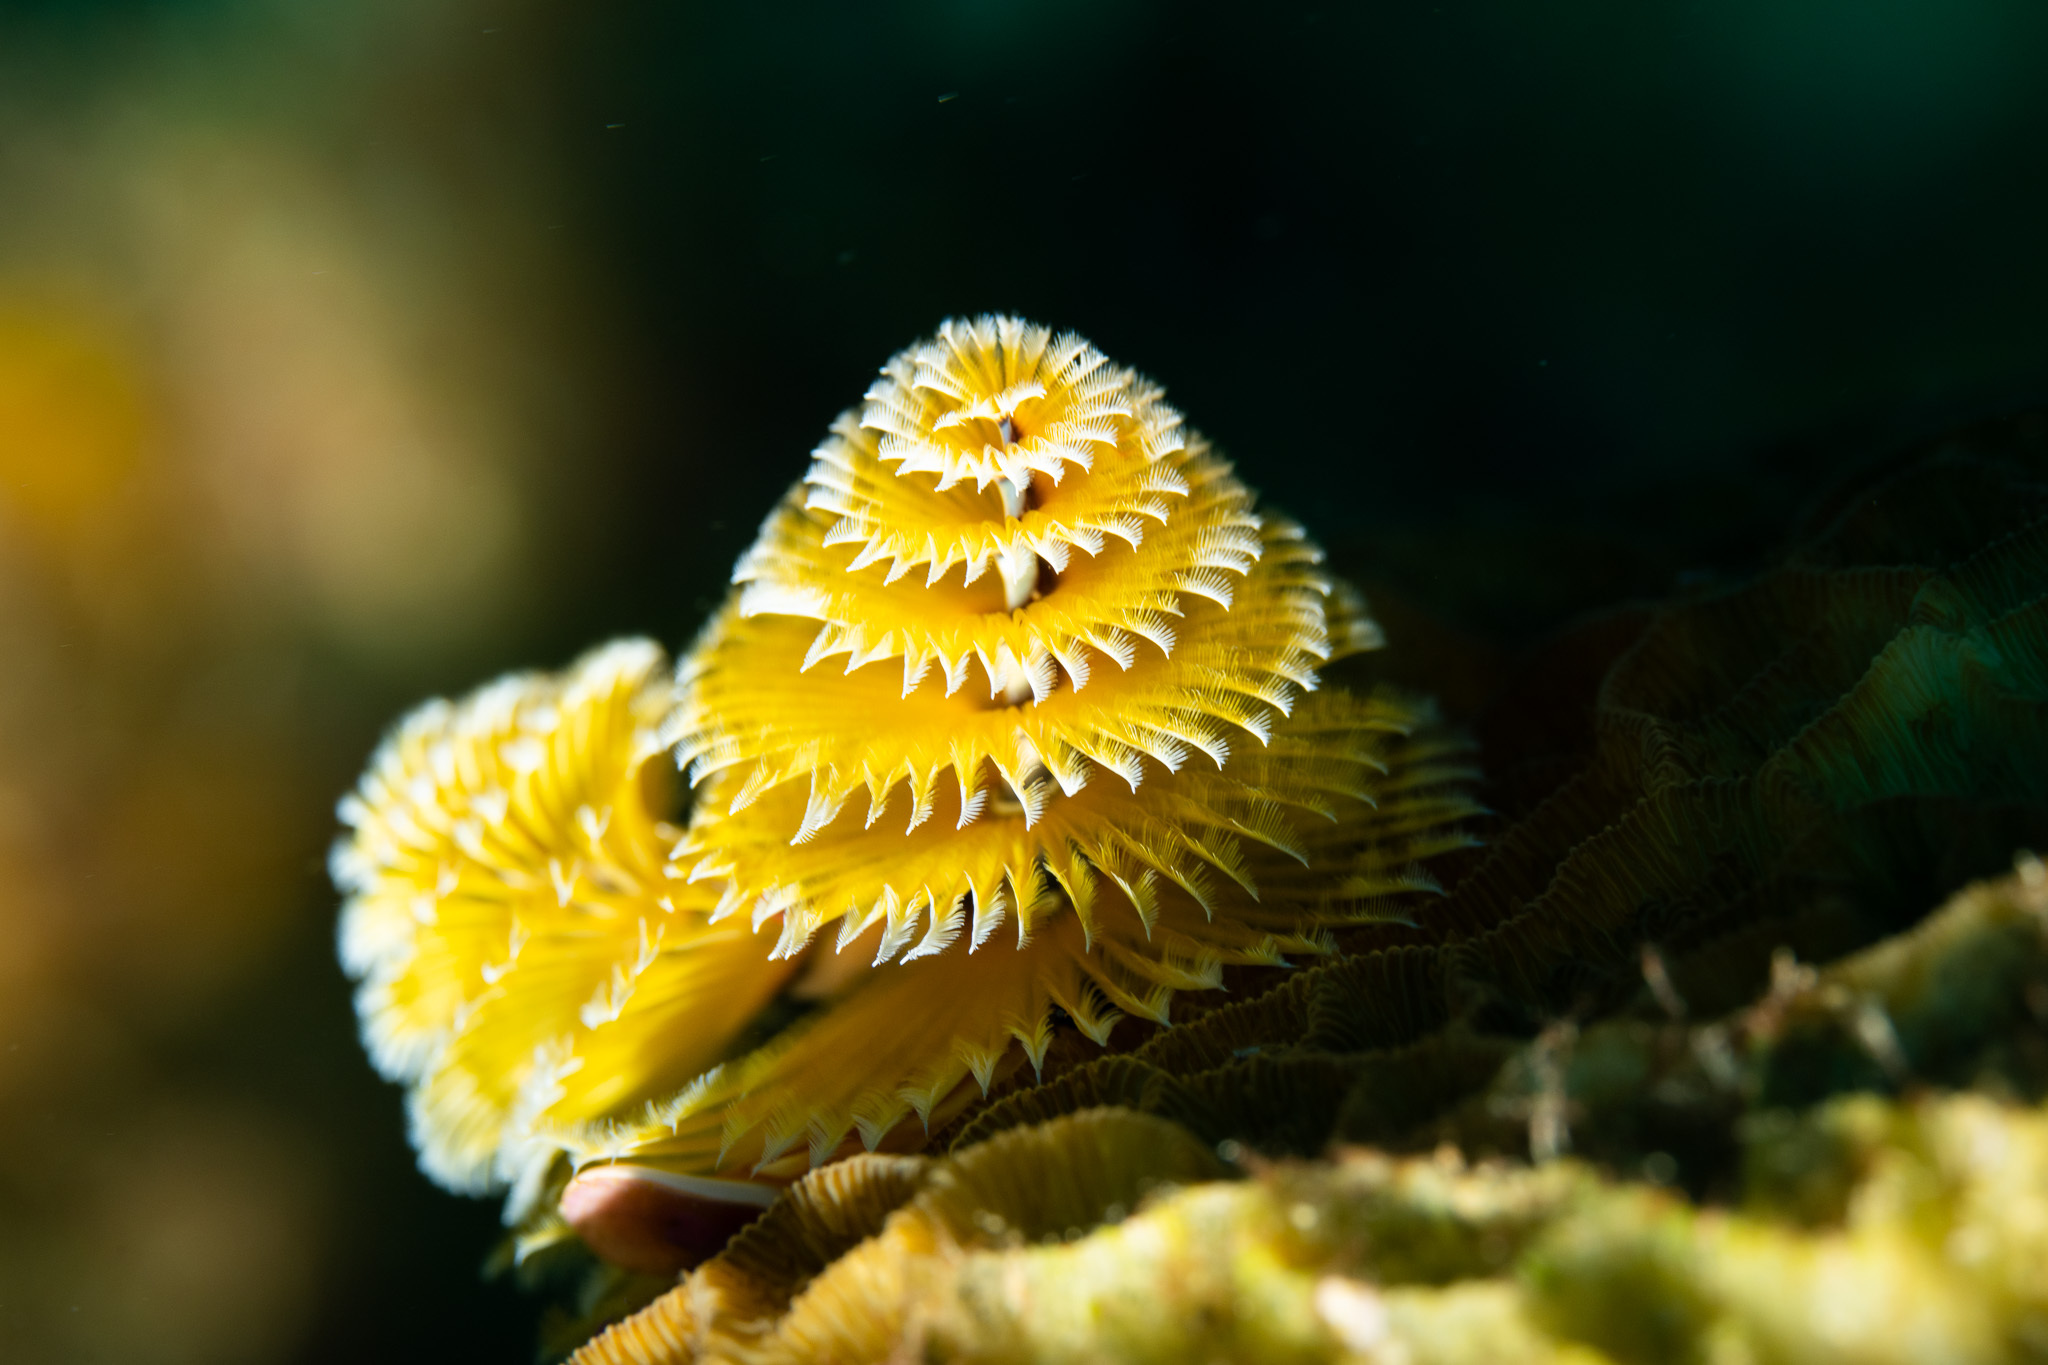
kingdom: Animalia
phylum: Annelida
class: Polychaeta
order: Sabellida
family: Serpulidae
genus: Spirobranchus
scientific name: Spirobranchus giganteus
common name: Christmas tree worm
